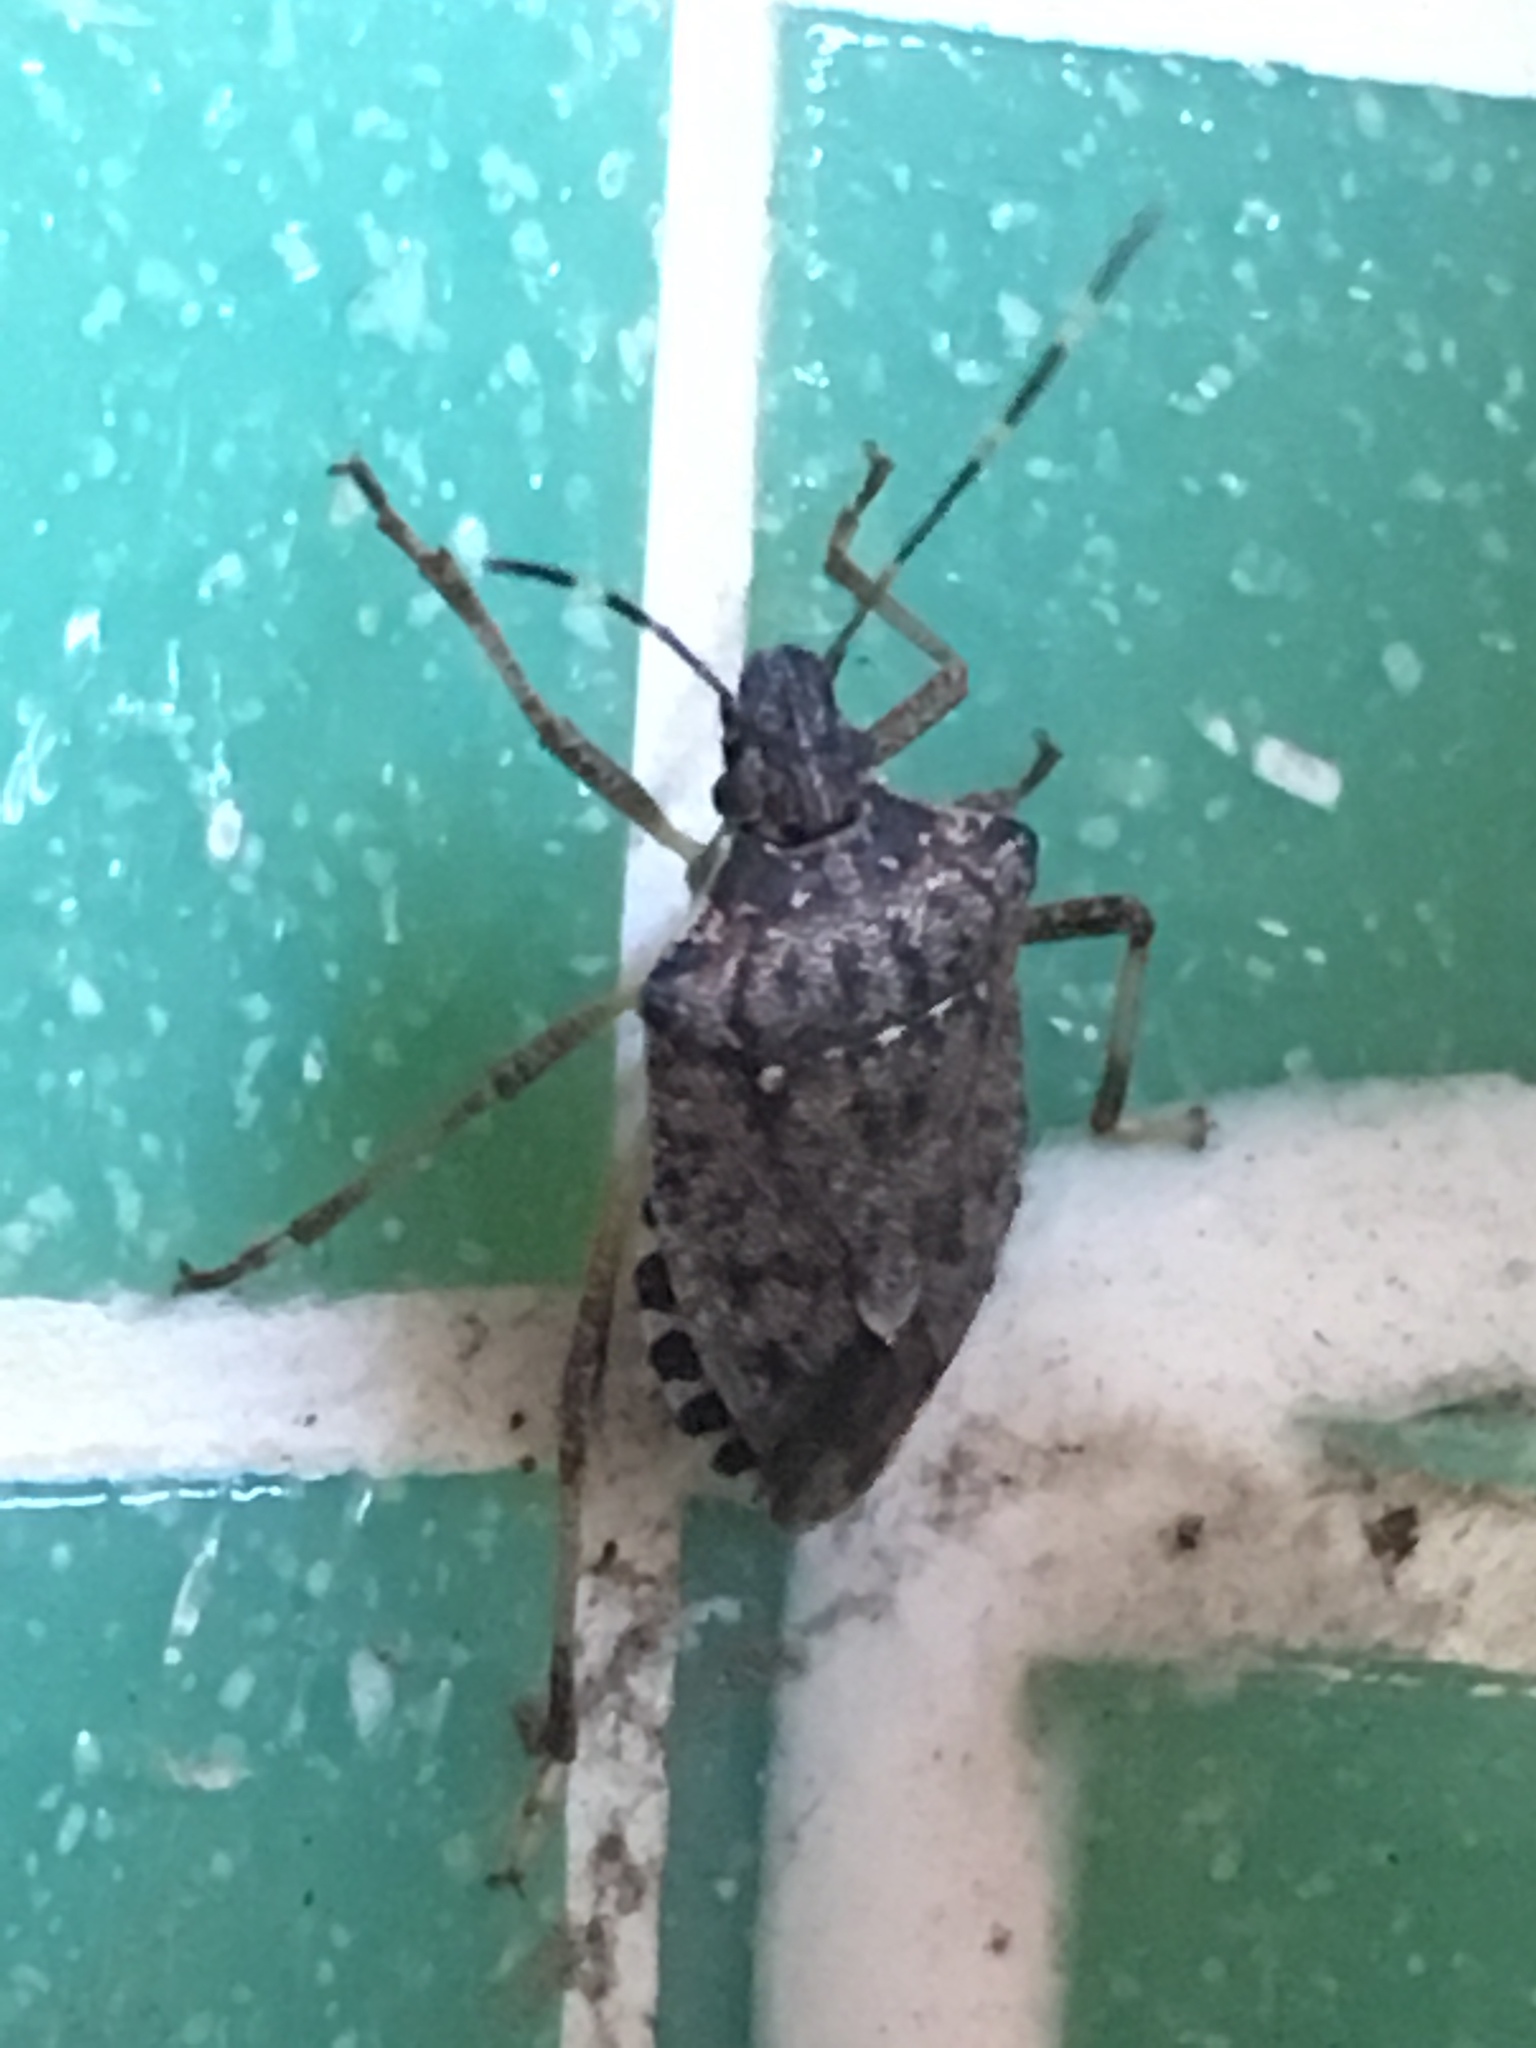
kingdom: Animalia
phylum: Arthropoda
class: Insecta
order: Hemiptera
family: Pentatomidae
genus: Halyomorpha
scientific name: Halyomorpha halys
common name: Brown marmorated stink bug
